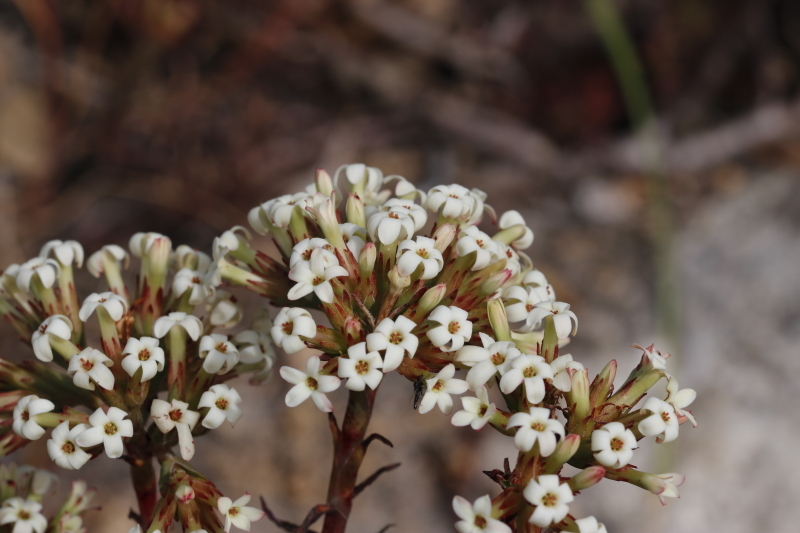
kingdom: Plantae
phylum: Tracheophyta
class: Magnoliopsida
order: Saxifragales
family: Crassulaceae
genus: Crassula
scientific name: Crassula fascicularis
